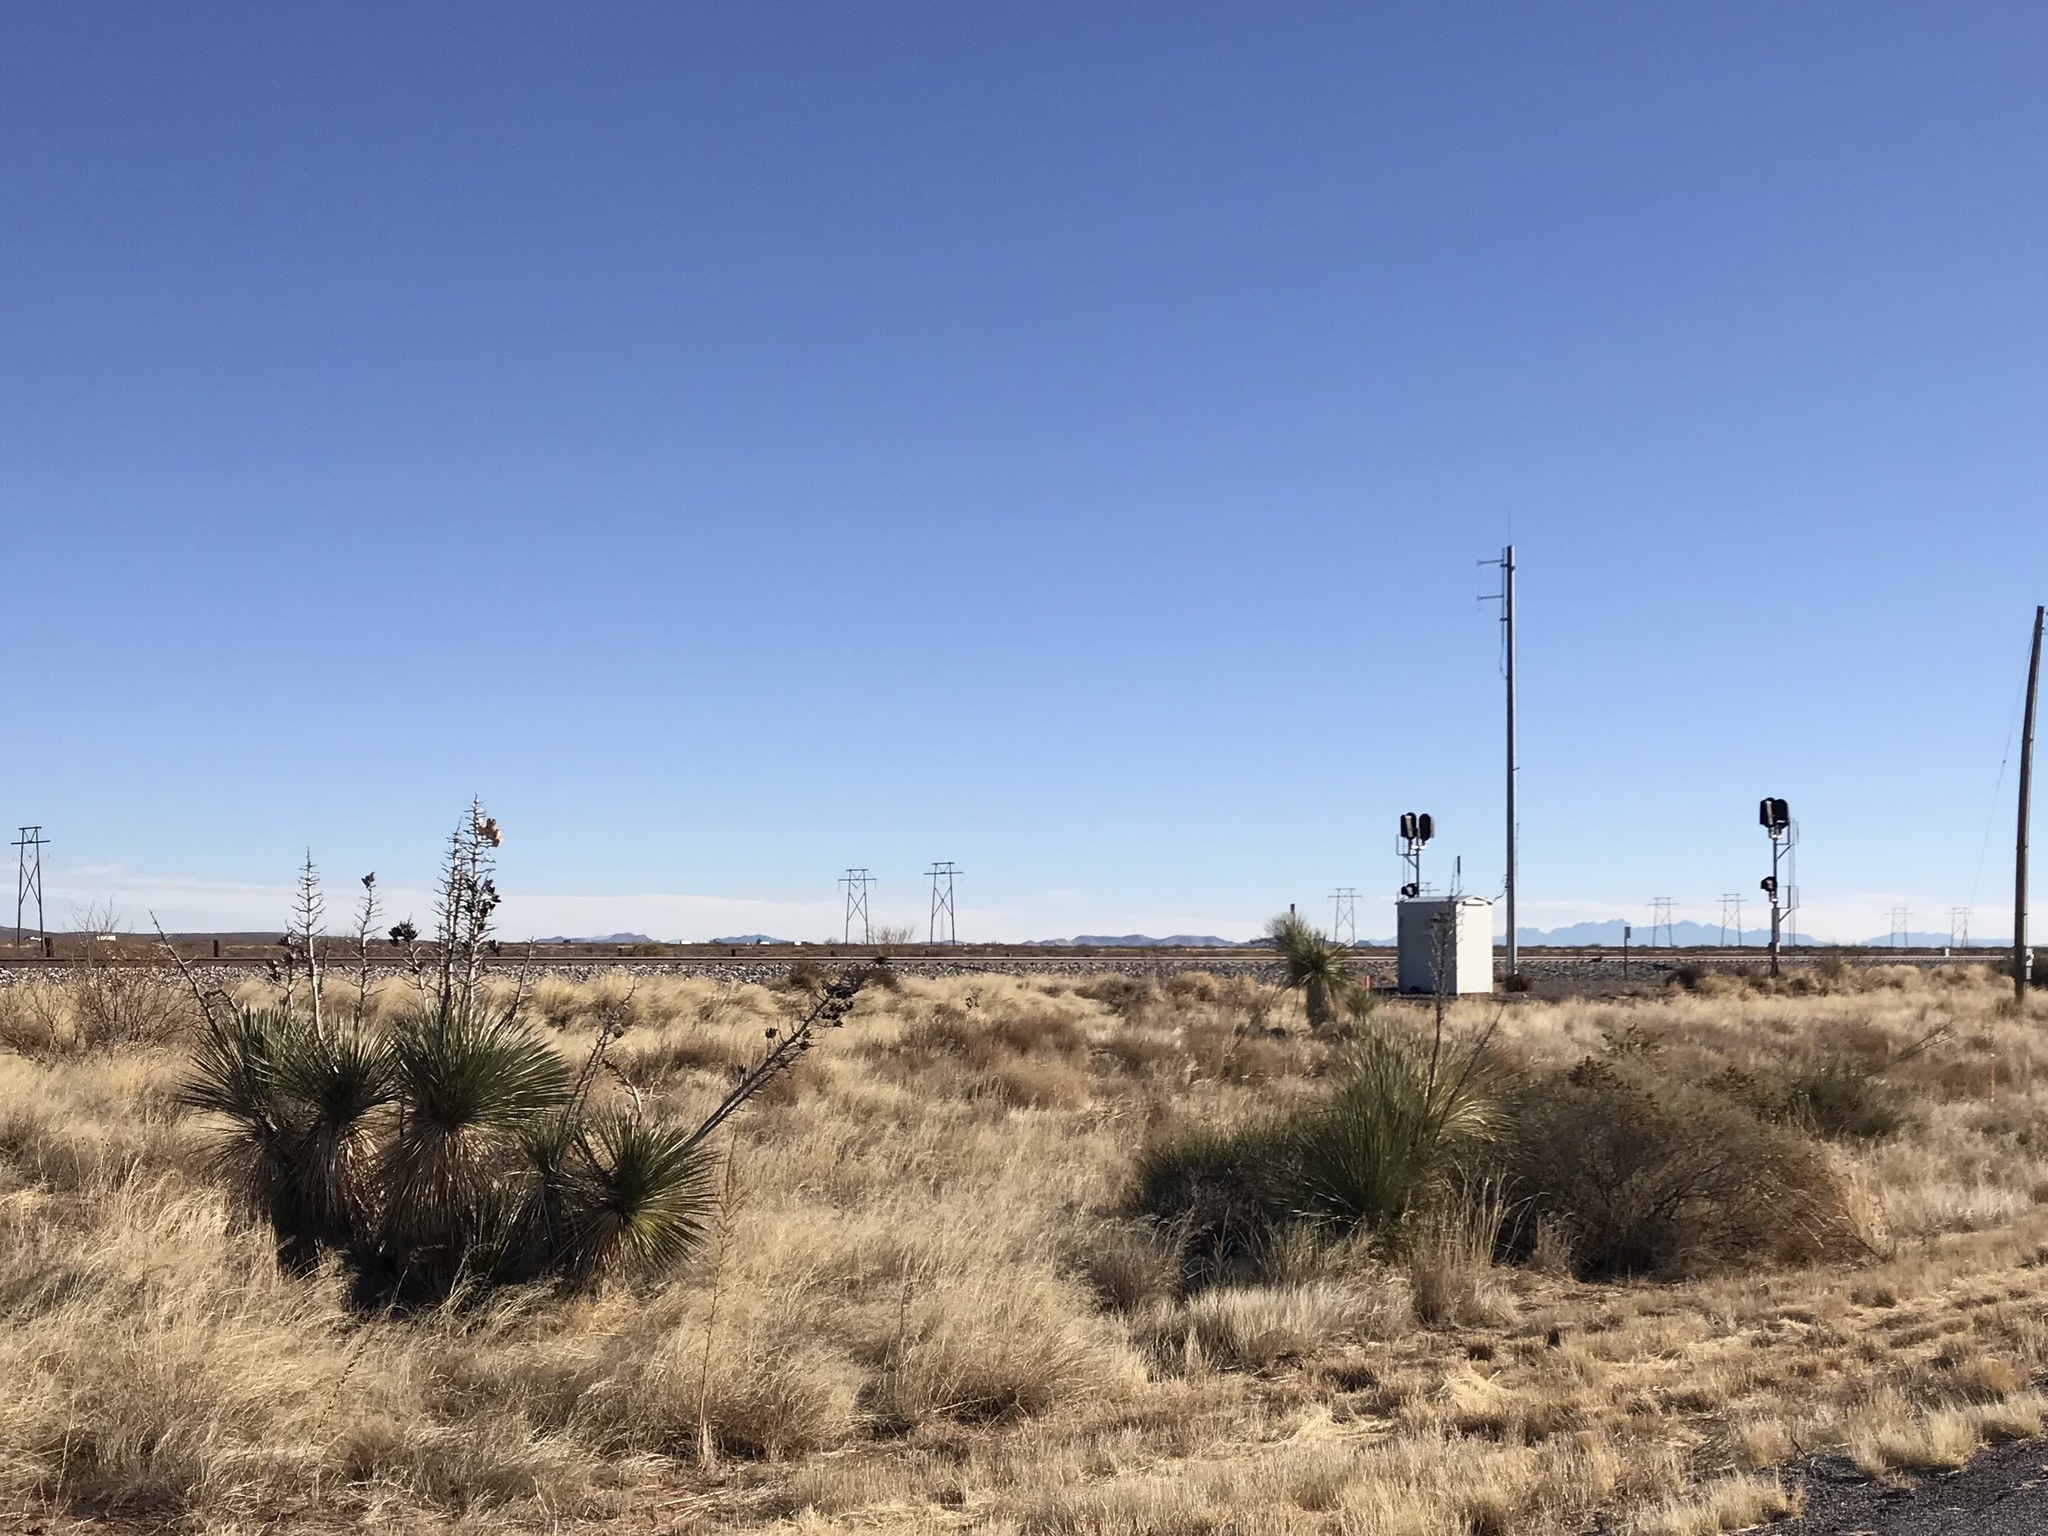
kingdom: Plantae
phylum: Tracheophyta
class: Liliopsida
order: Asparagales
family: Asparagaceae
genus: Yucca
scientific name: Yucca elata
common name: Palmella
